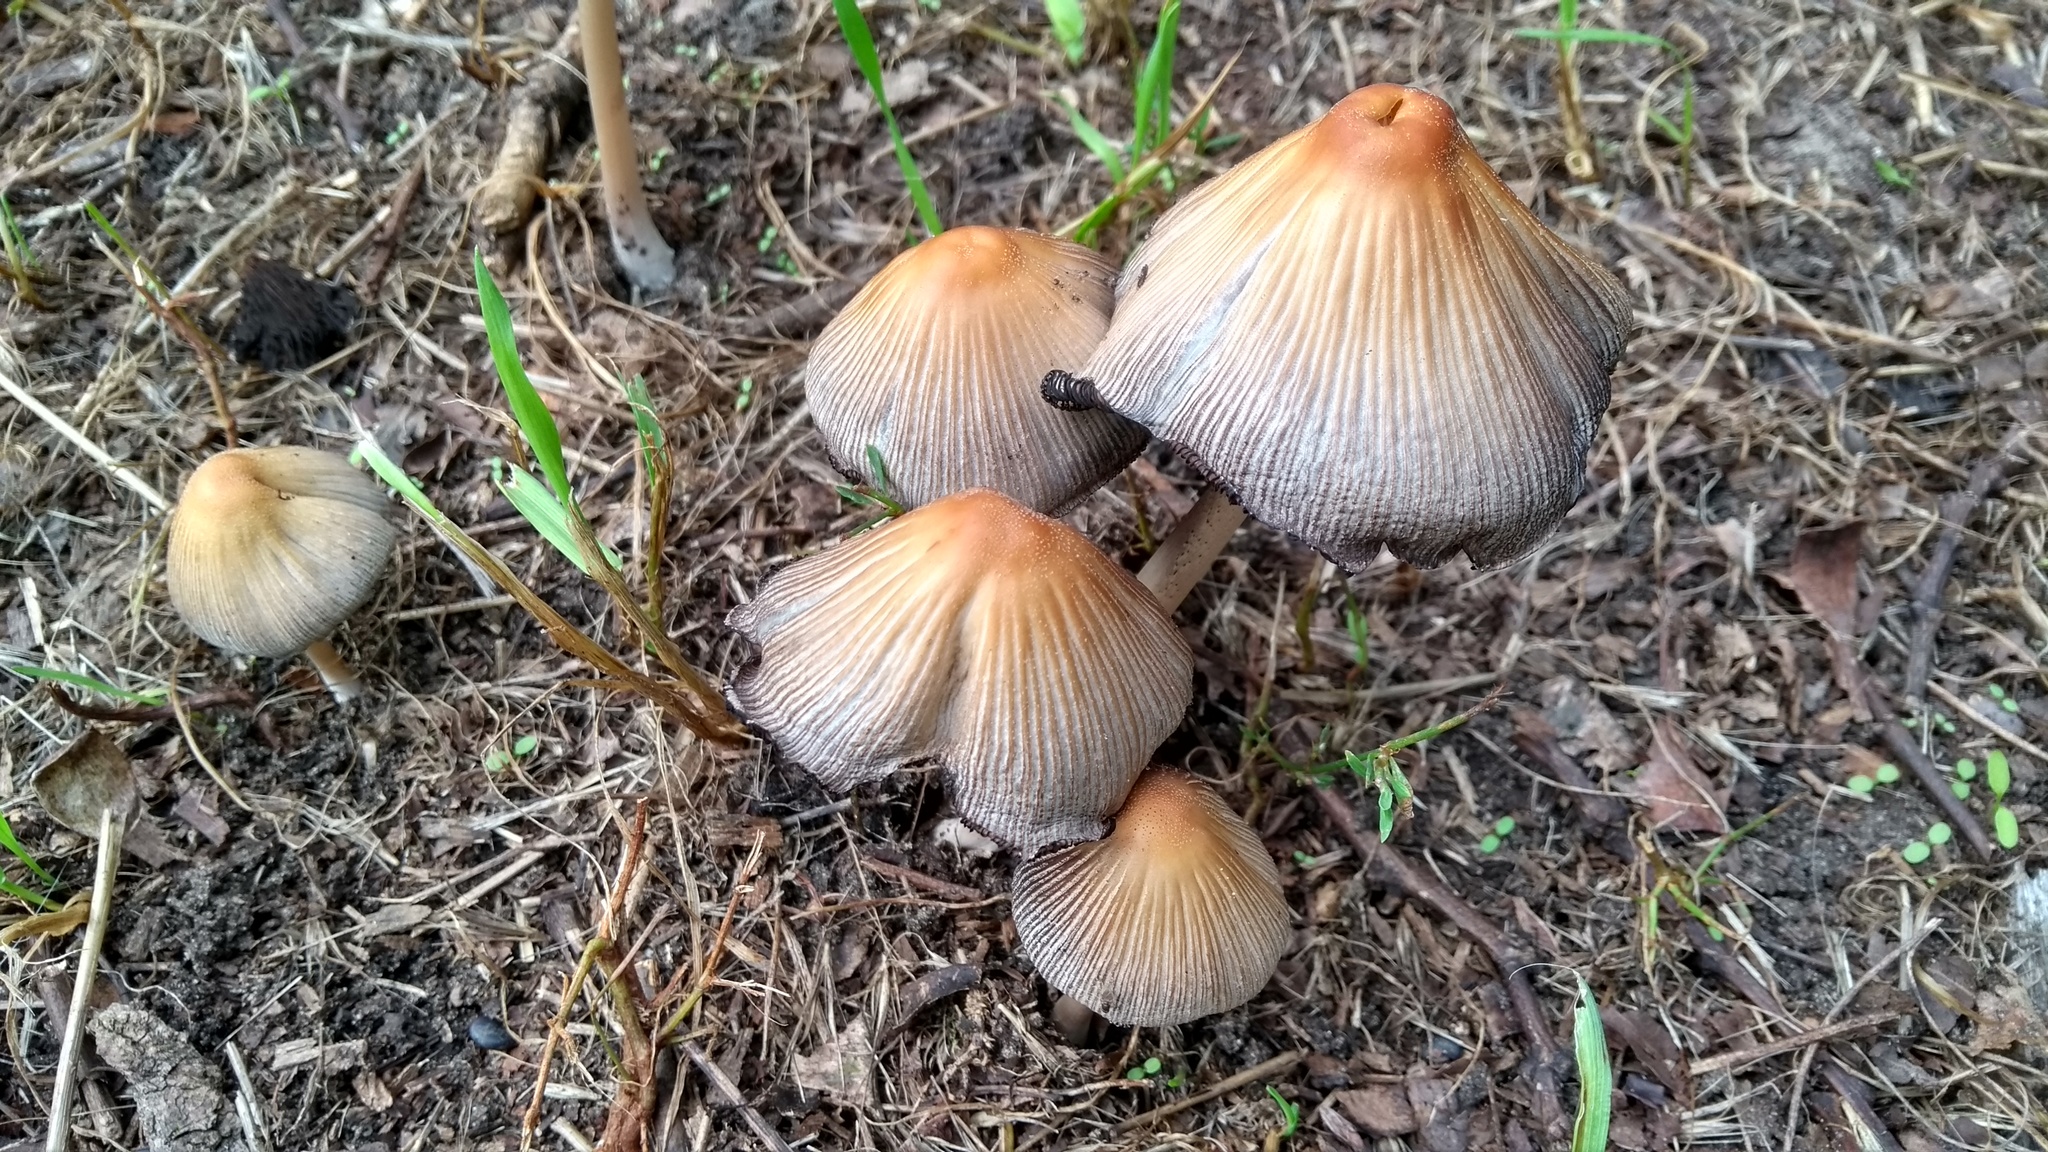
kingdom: Fungi
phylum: Basidiomycota
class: Agaricomycetes
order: Agaricales
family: Psathyrellaceae
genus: Coprinellus
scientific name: Coprinellus micaceus
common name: Glistening ink-cap
